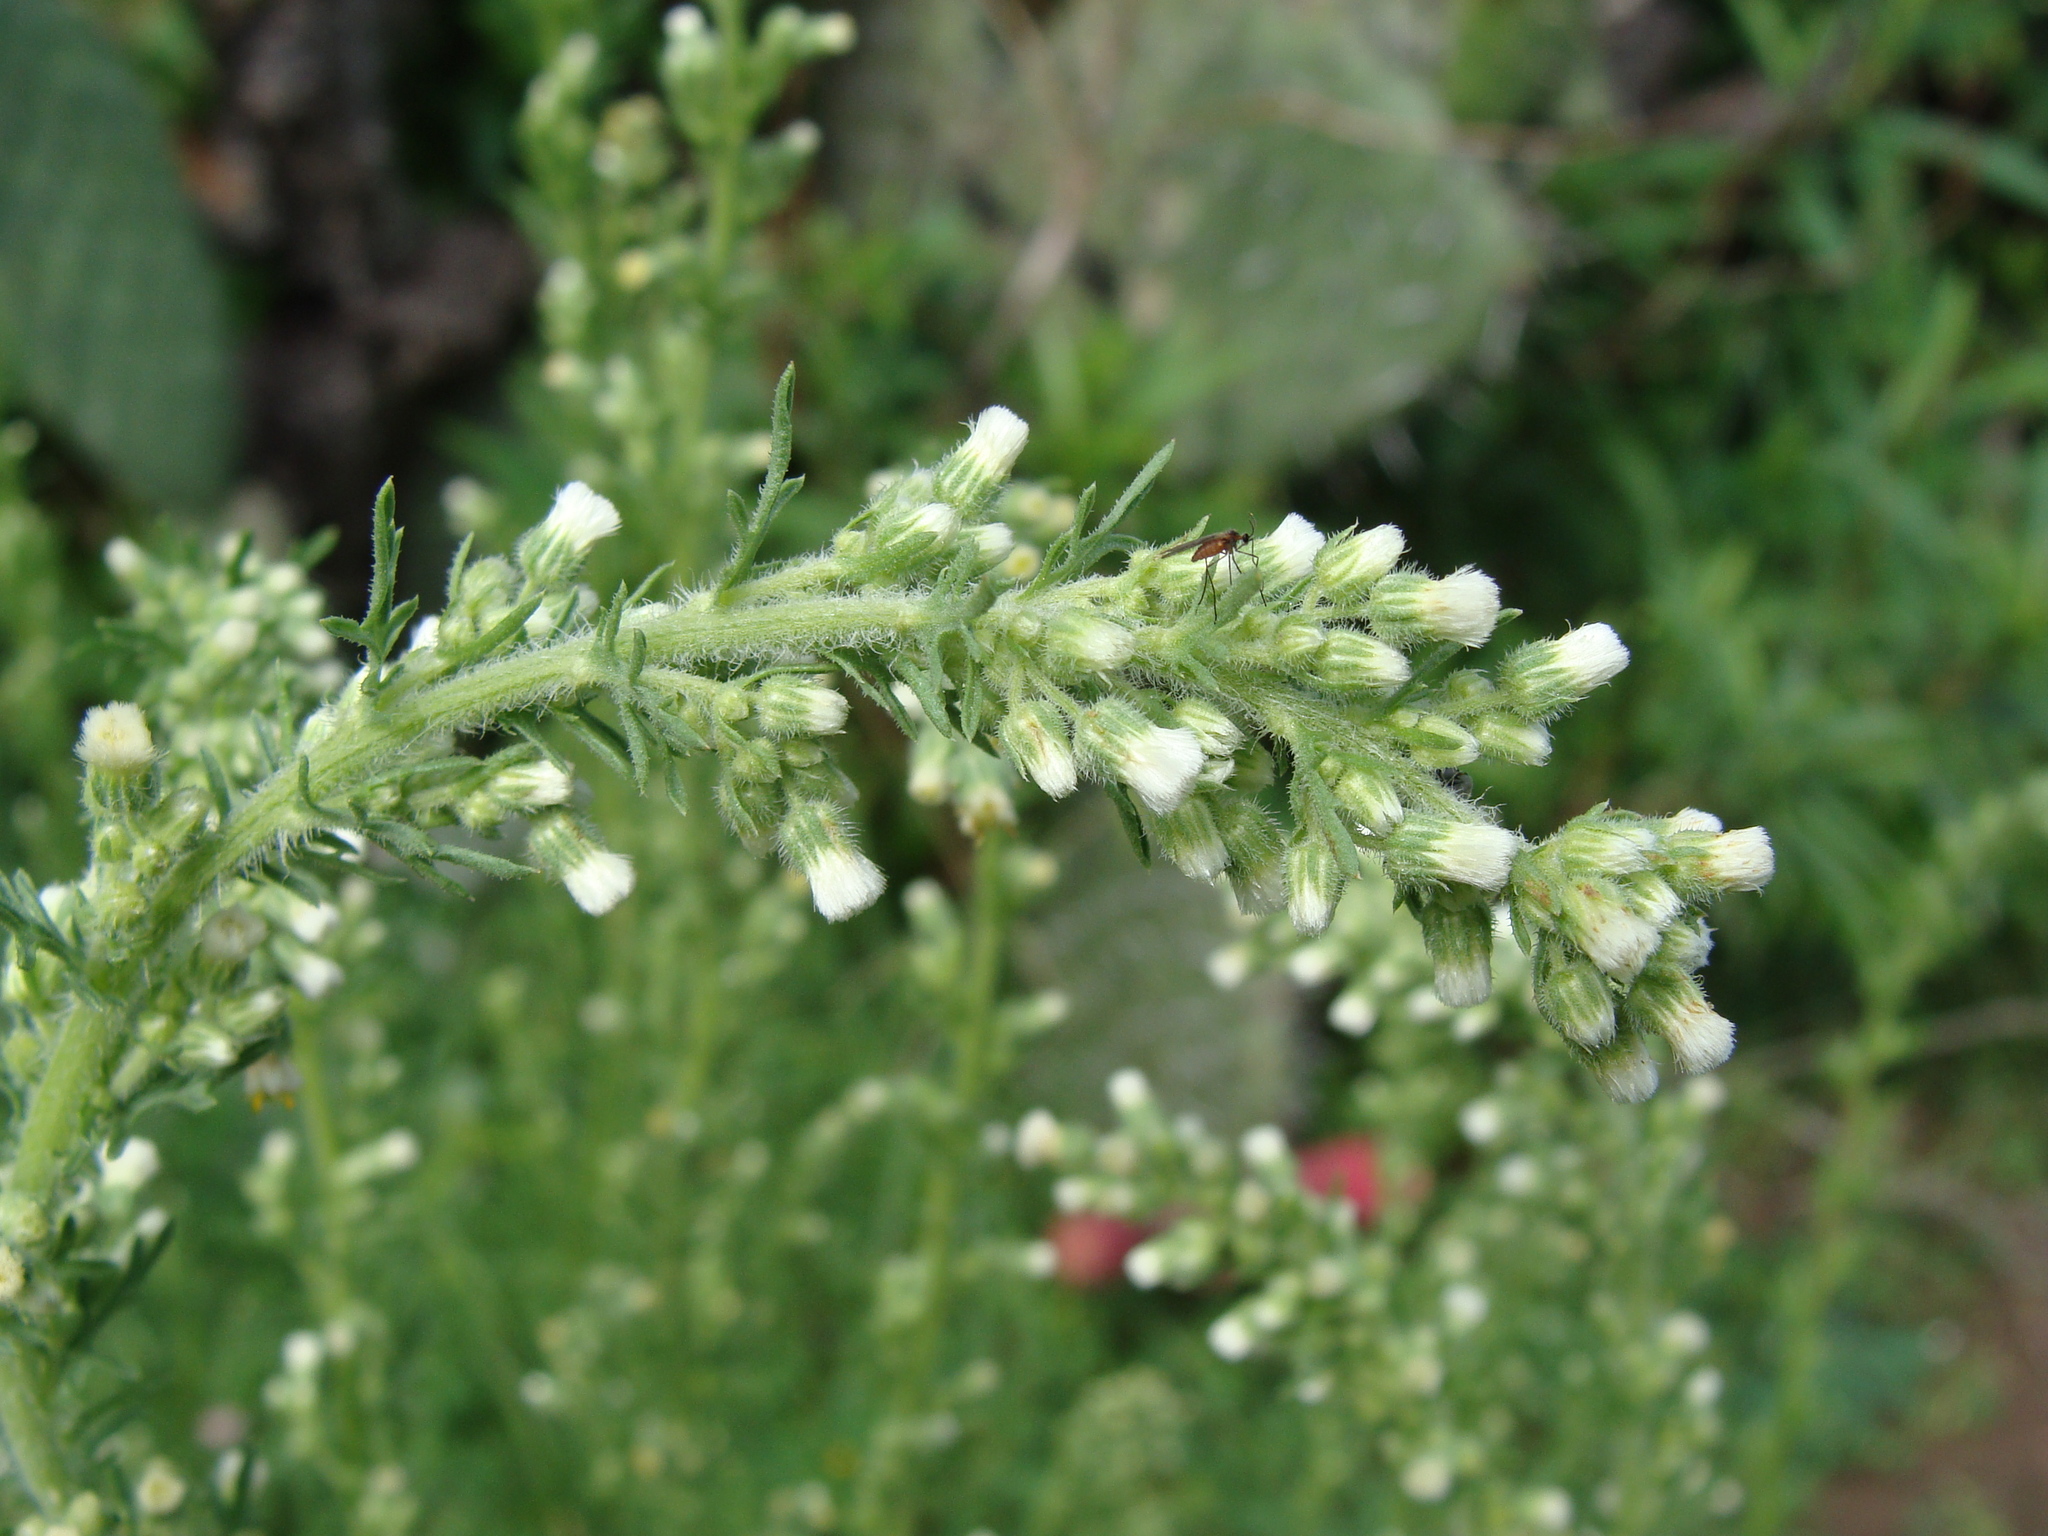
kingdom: Plantae
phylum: Tracheophyta
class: Magnoliopsida
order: Asterales
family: Asteraceae
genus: Laennecia
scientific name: Laennecia sophiifolia
